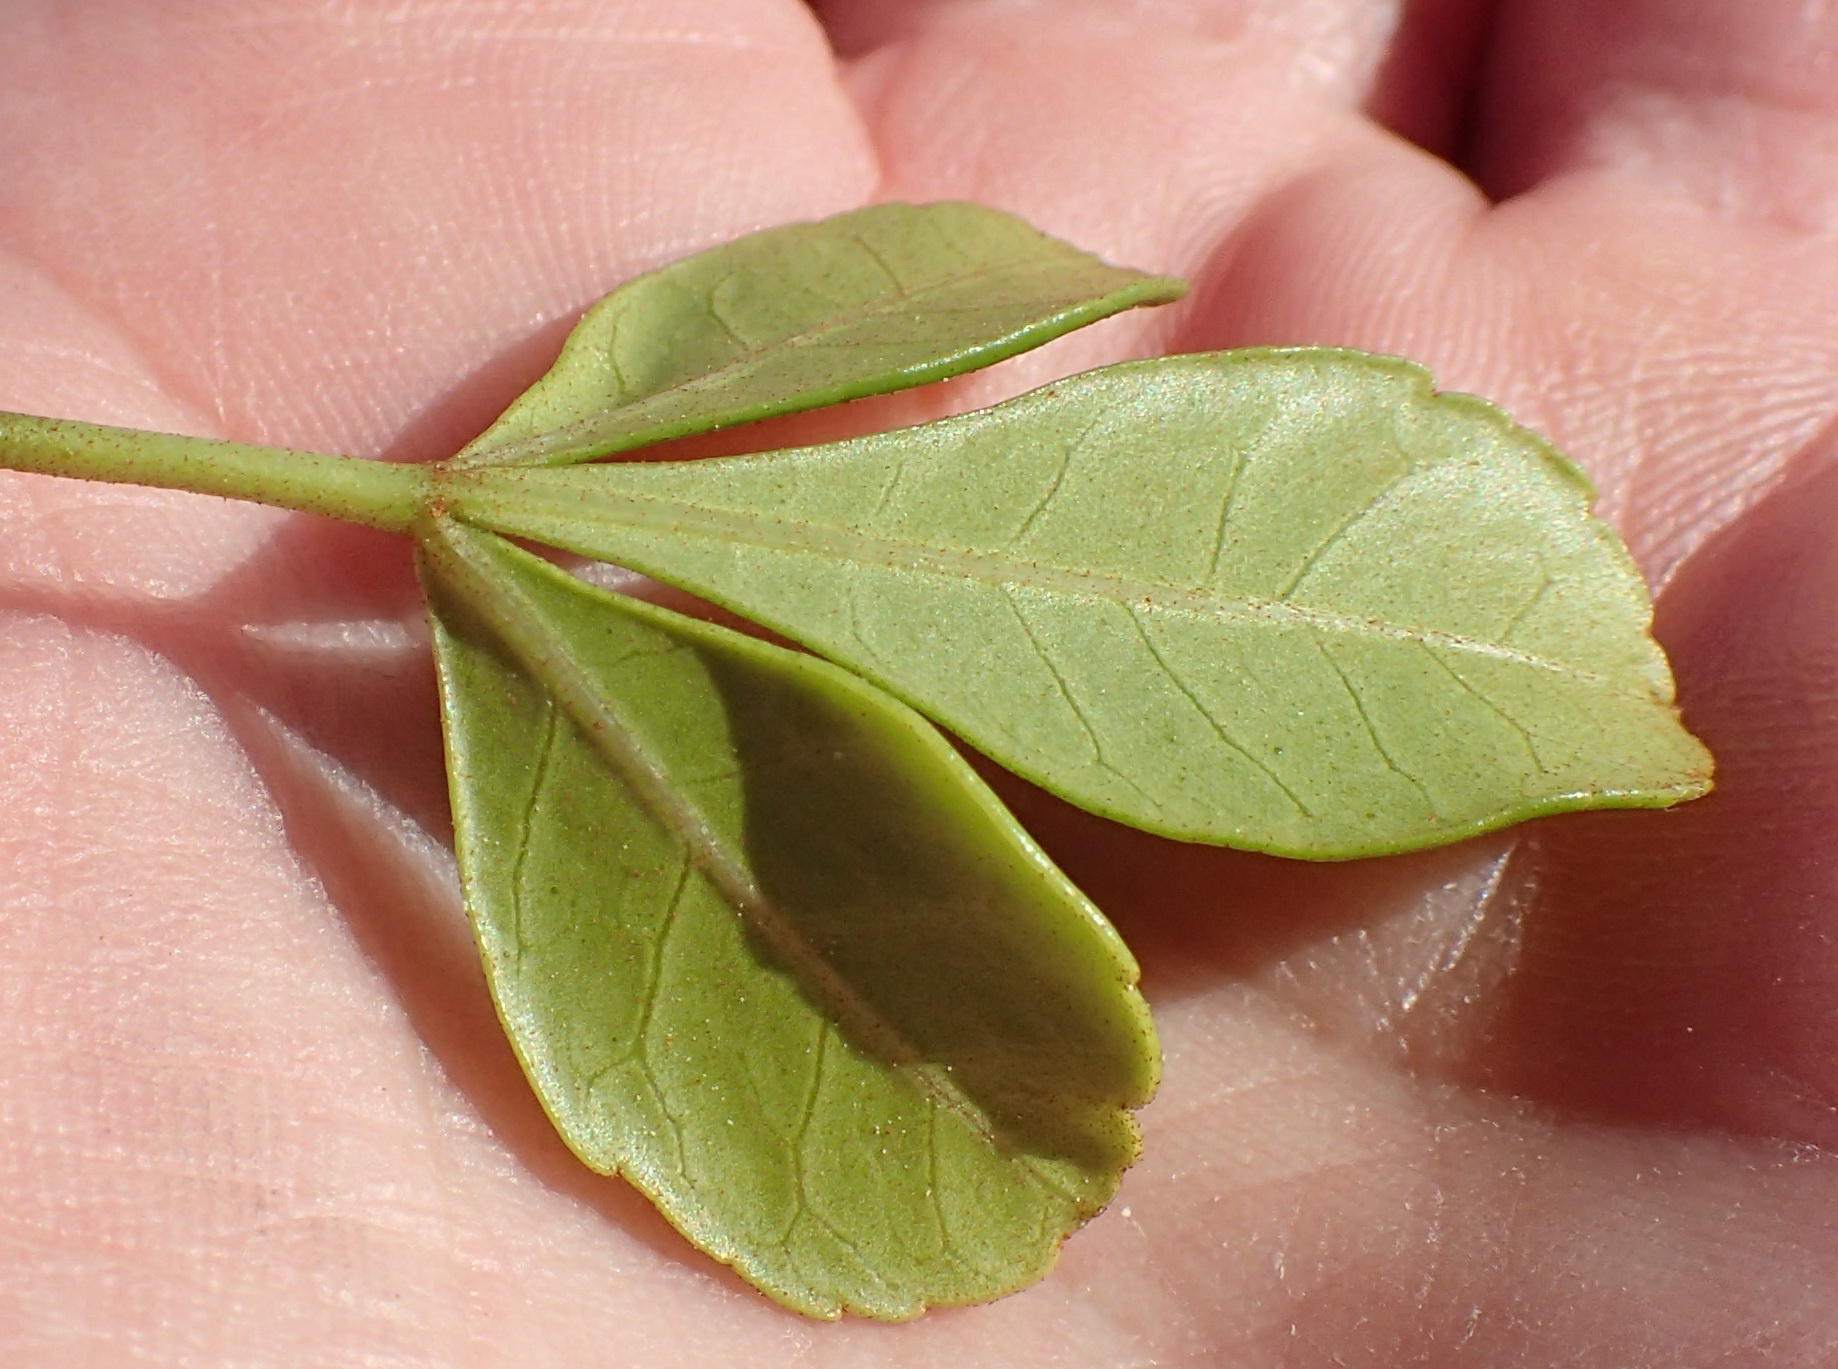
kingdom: Plantae
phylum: Tracheophyta
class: Magnoliopsida
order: Sapindales
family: Anacardiaceae
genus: Searsia
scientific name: Searsia crenata
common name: Crowberry
